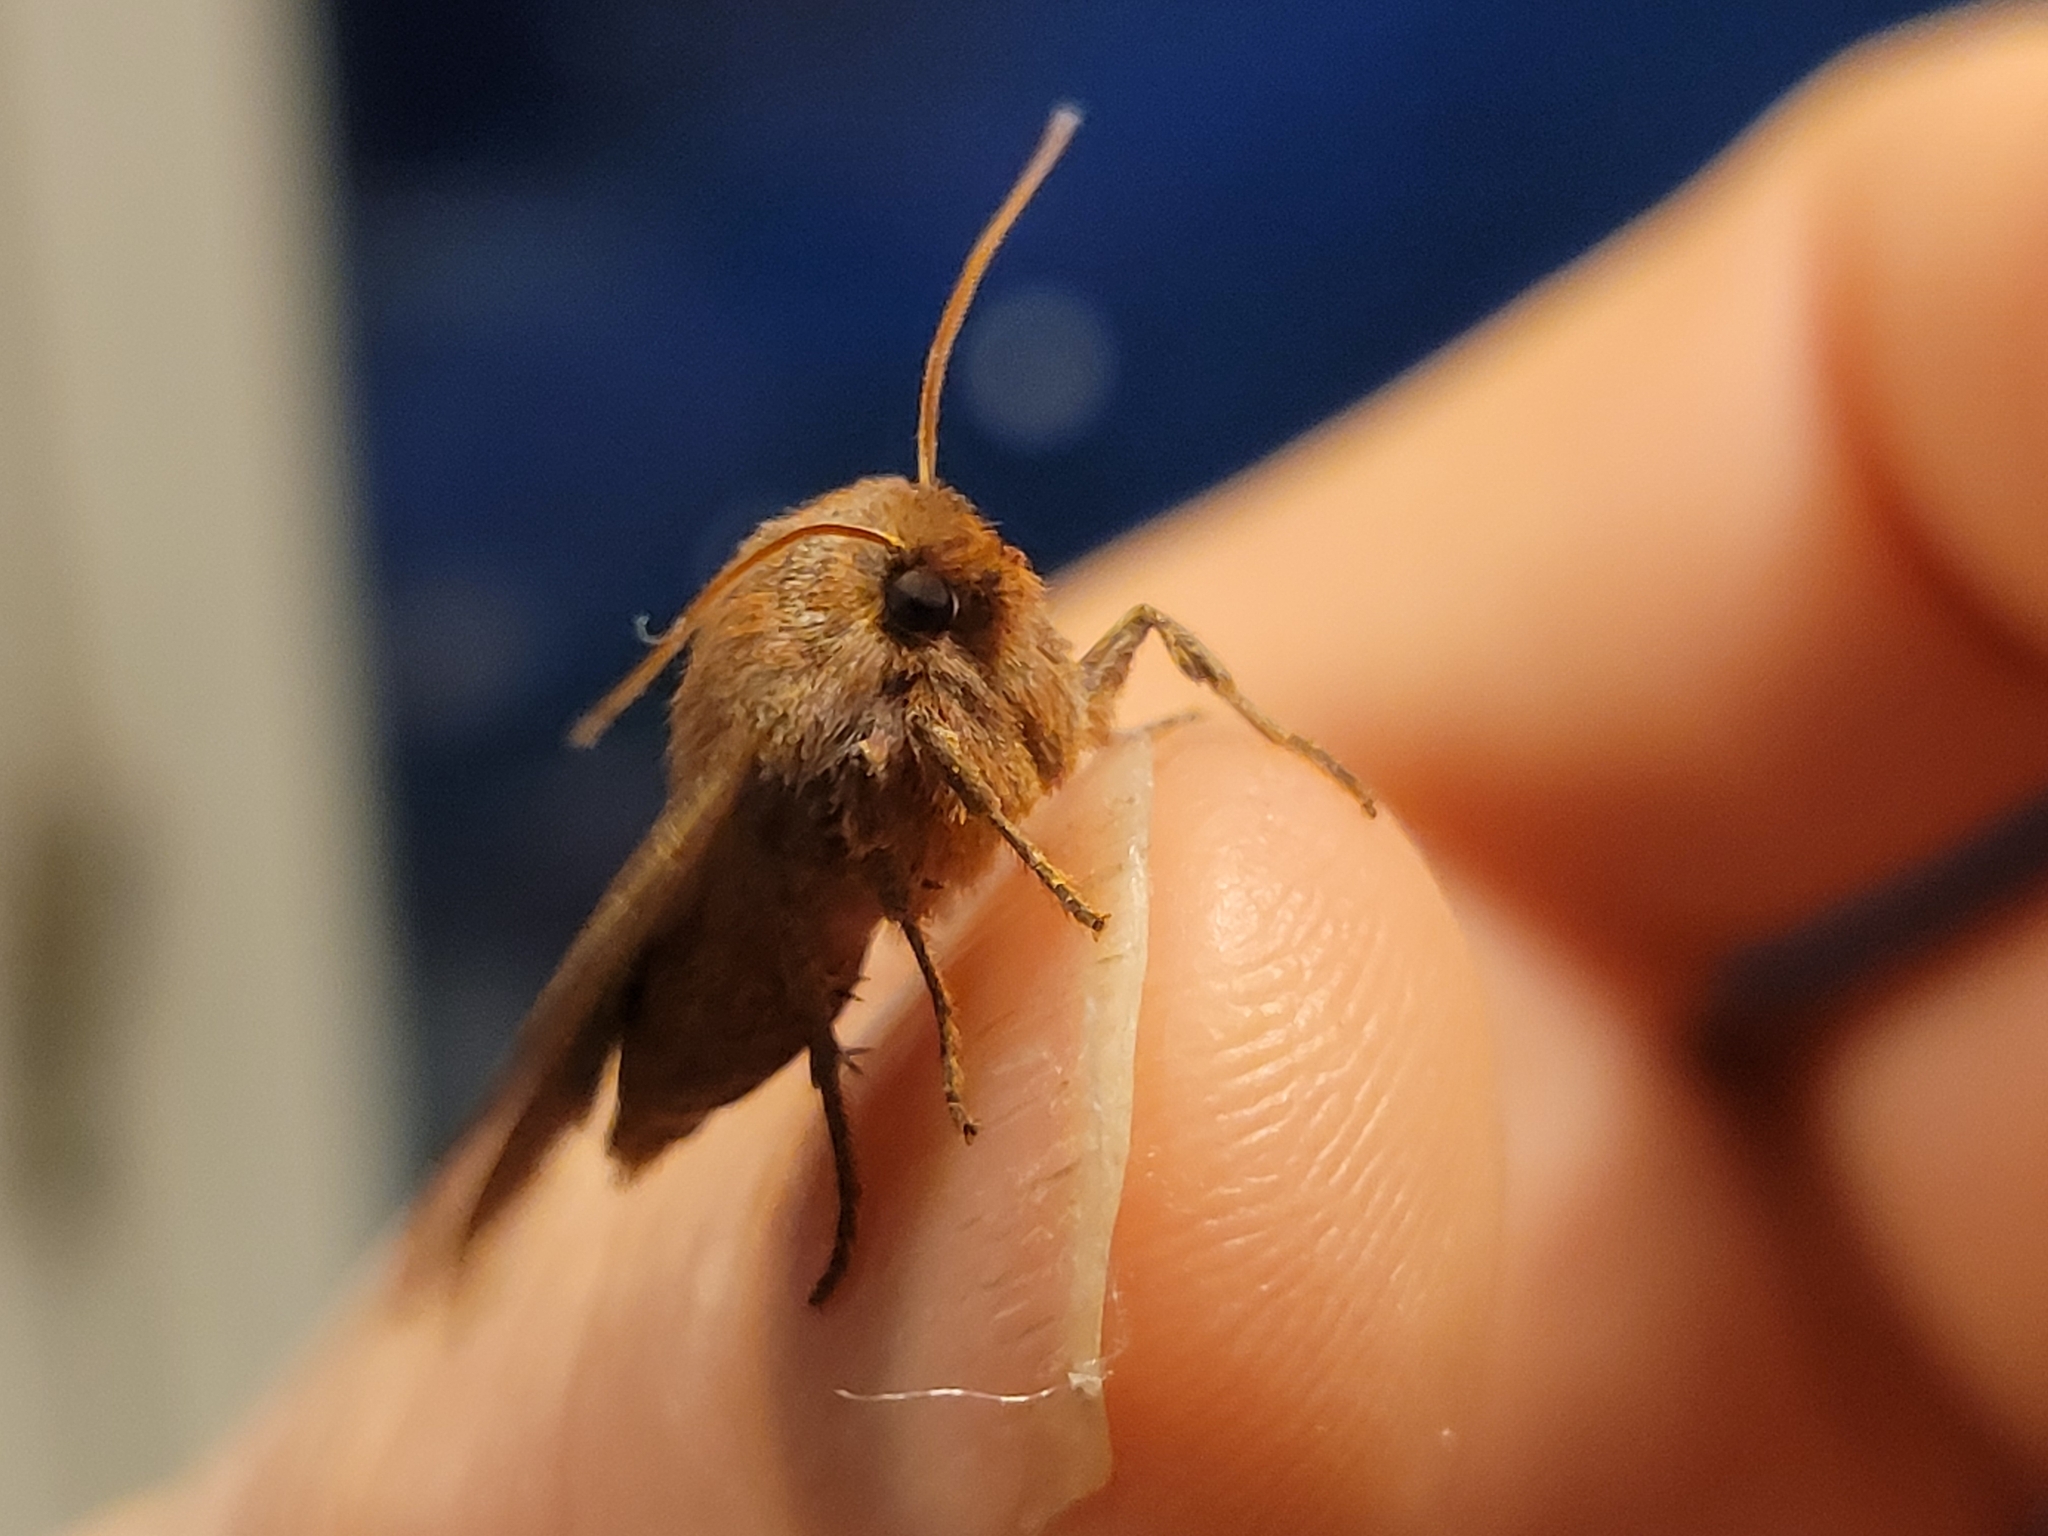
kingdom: Animalia
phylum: Arthropoda
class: Insecta
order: Lepidoptera
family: Noctuidae
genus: Conistra
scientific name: Conistra vaccinii
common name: Chestnut
